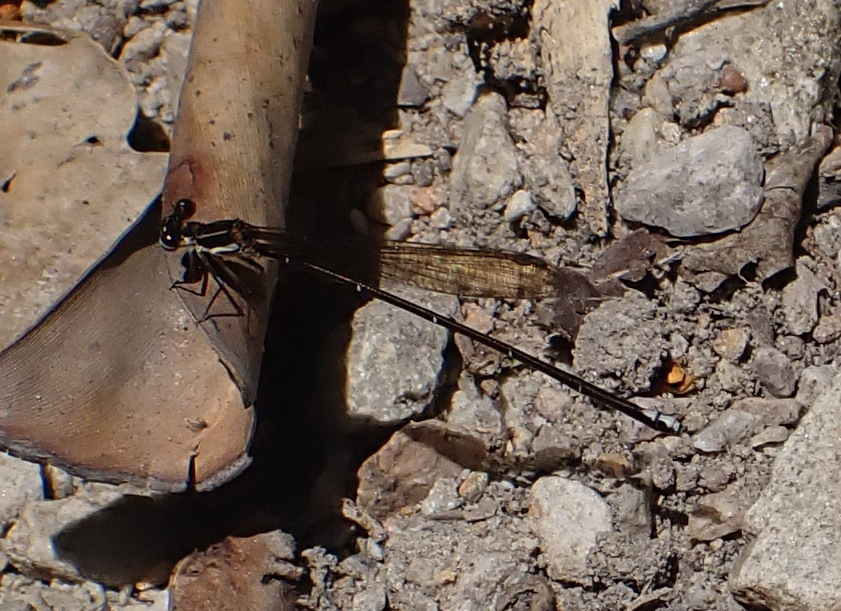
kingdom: Animalia
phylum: Arthropoda
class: Insecta
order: Odonata
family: Platycnemididae
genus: Allocnemis
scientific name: Allocnemis leucosticta
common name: Goldtail
